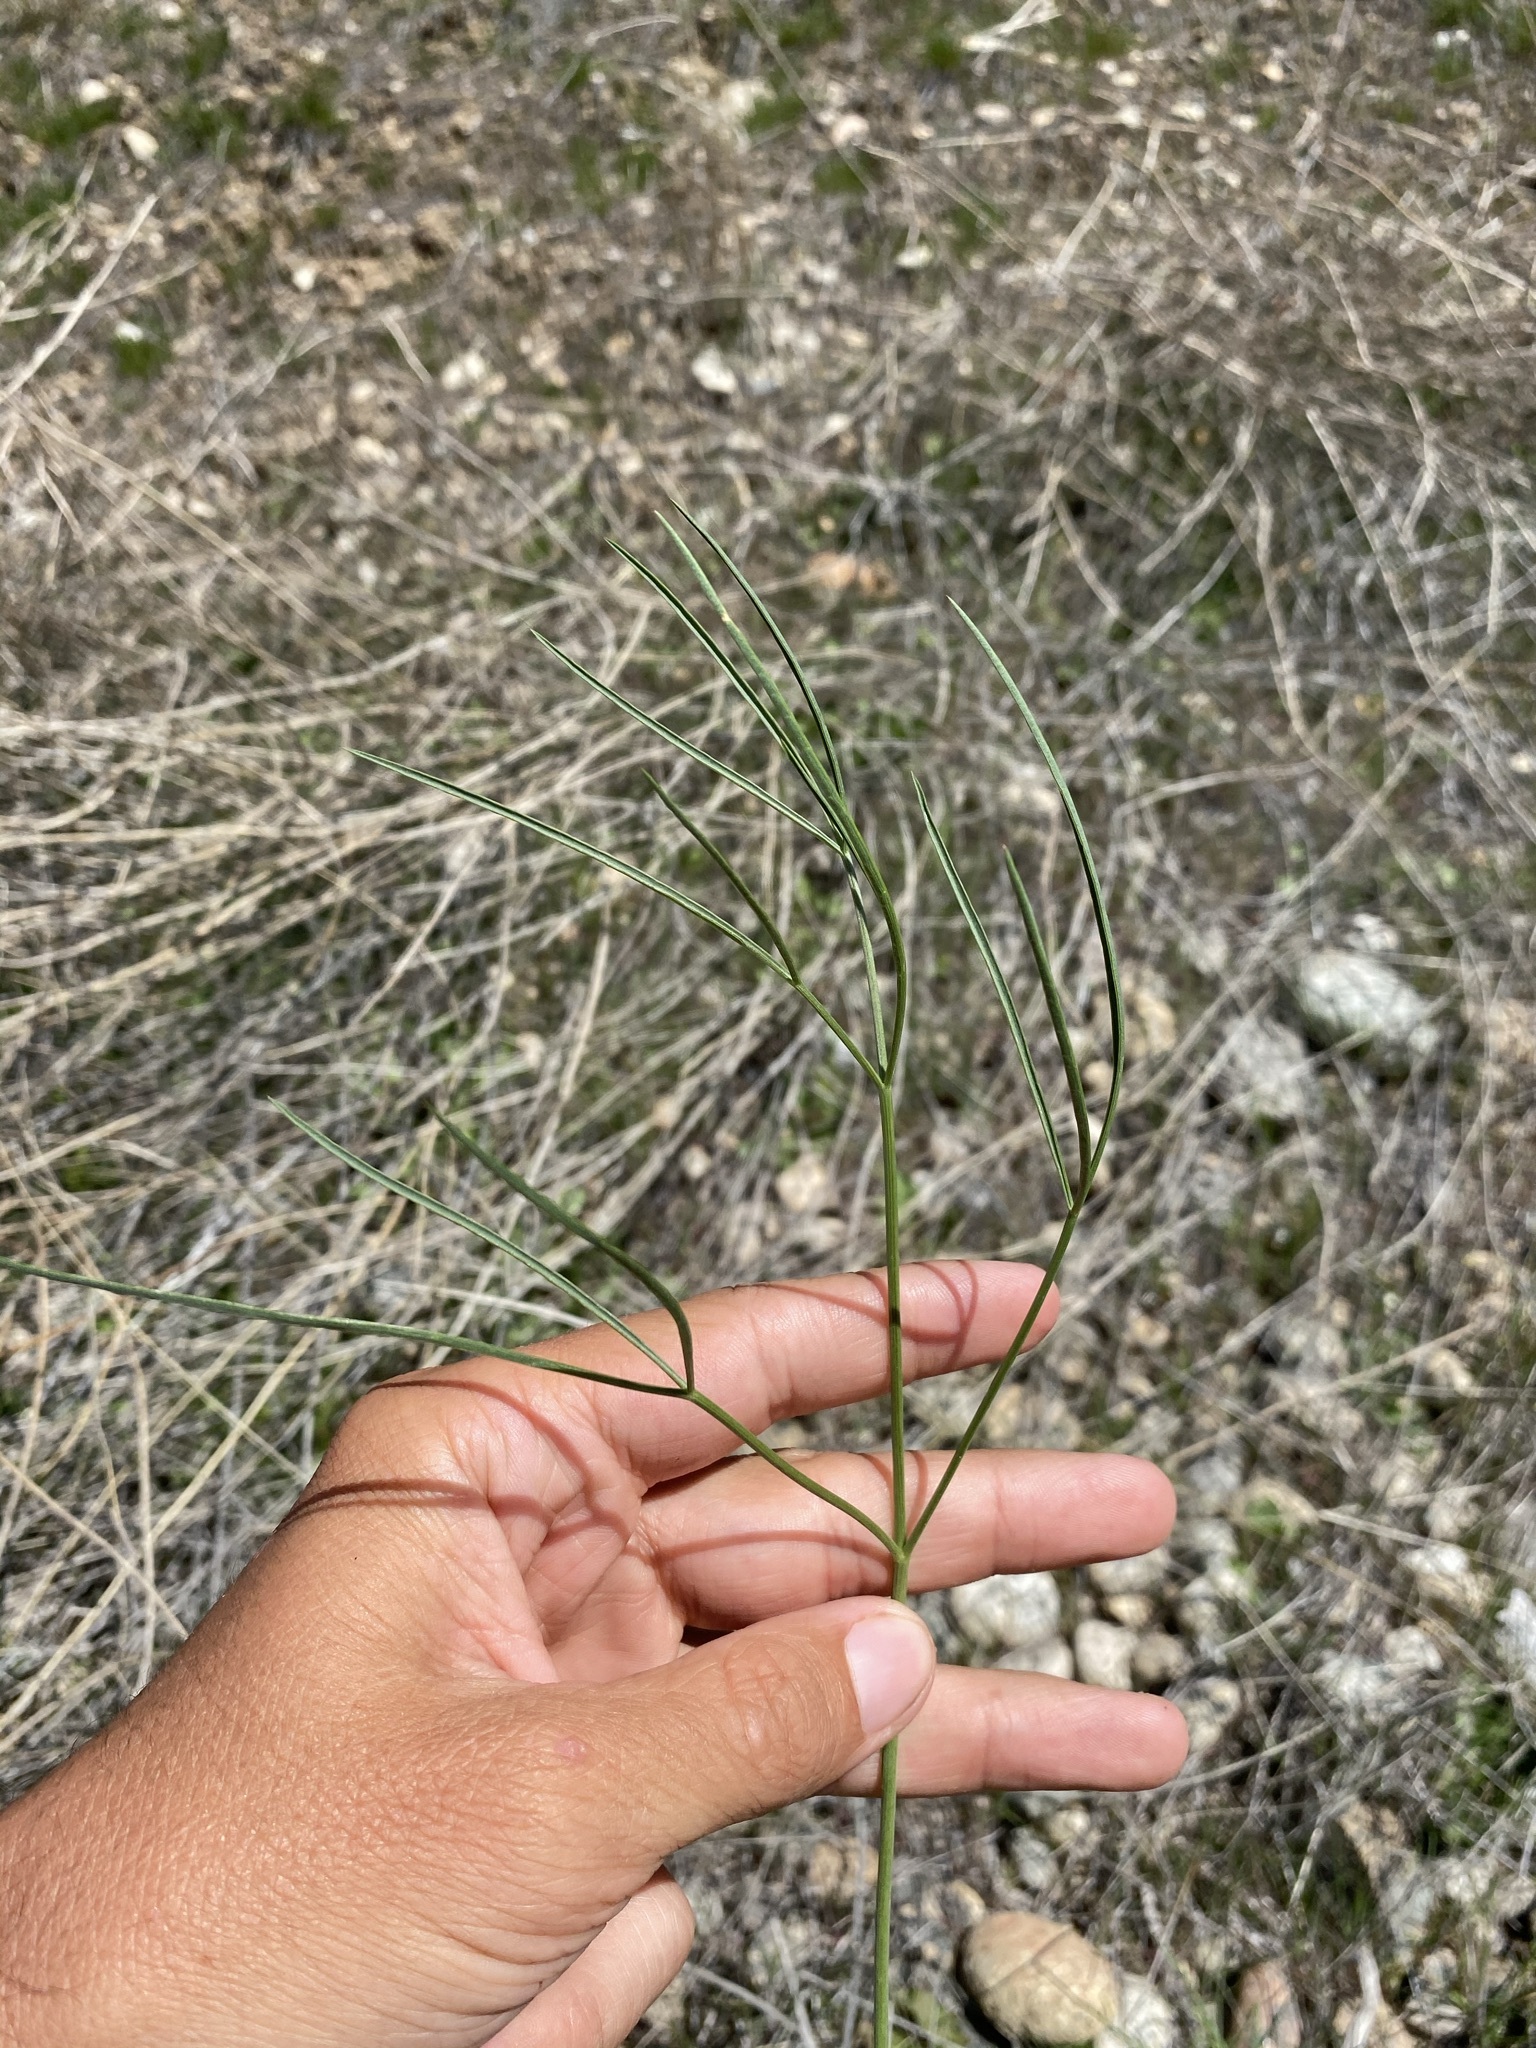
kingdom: Plantae
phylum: Tracheophyta
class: Magnoliopsida
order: Apiales
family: Apiaceae
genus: Lomatium
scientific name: Lomatium triternatum
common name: Ternate lomatium
